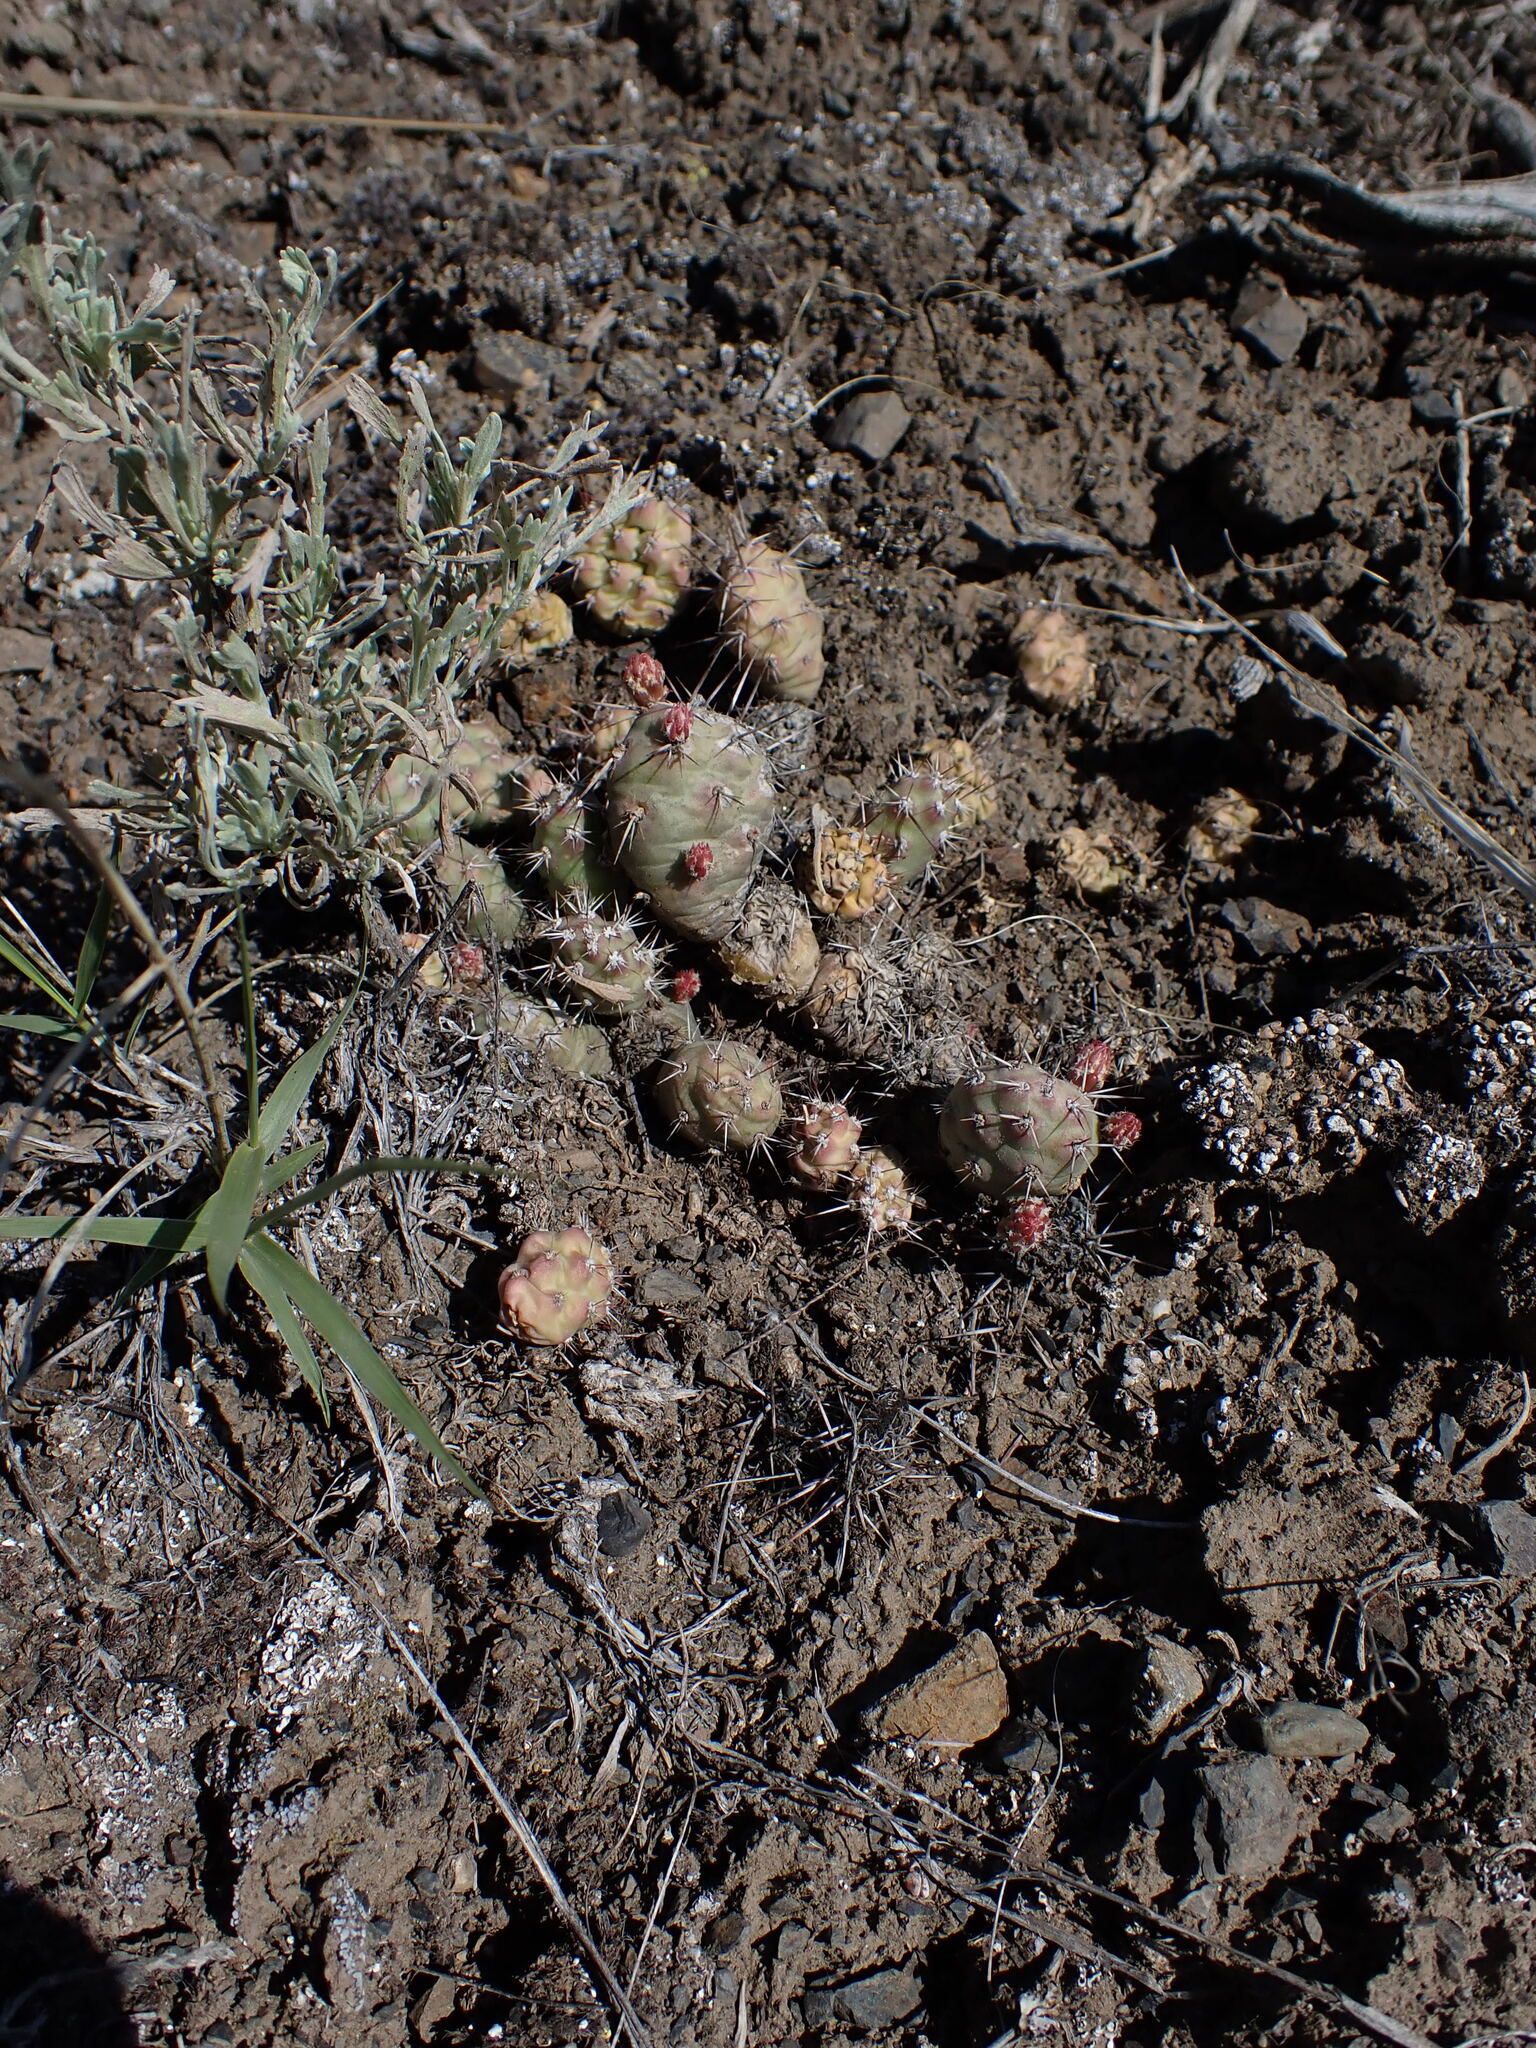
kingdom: Plantae
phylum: Tracheophyta
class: Magnoliopsida
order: Caryophyllales
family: Cactaceae
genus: Opuntia
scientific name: Opuntia fragilis
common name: Brittle cactus
